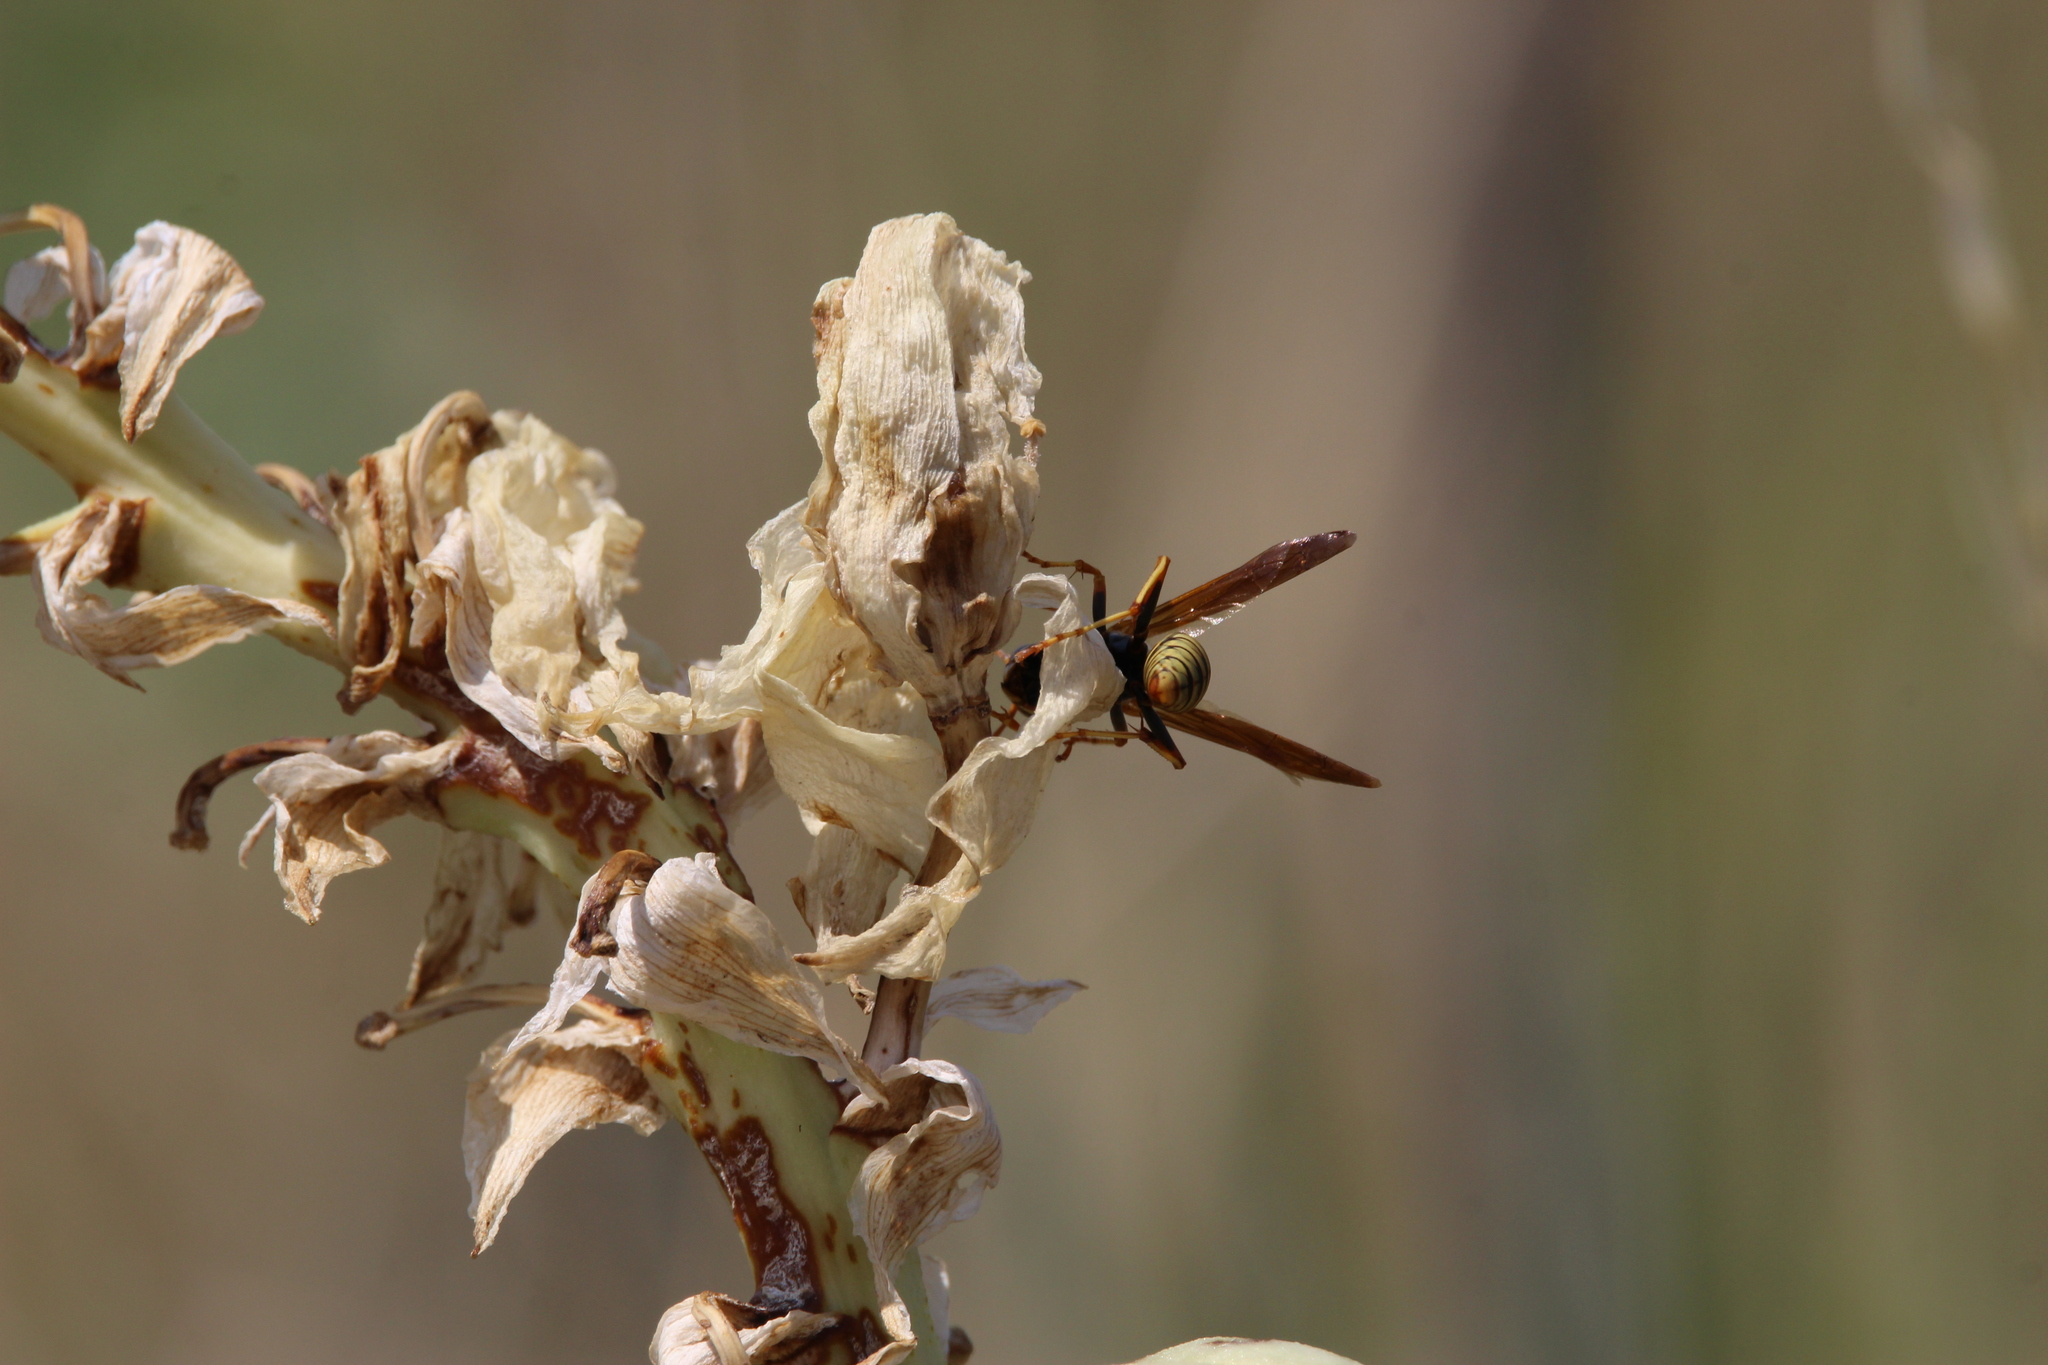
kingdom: Animalia
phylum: Arthropoda
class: Insecta
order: Hymenoptera
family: Eumenidae
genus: Polistes
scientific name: Polistes aurifer
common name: Paper wasp
